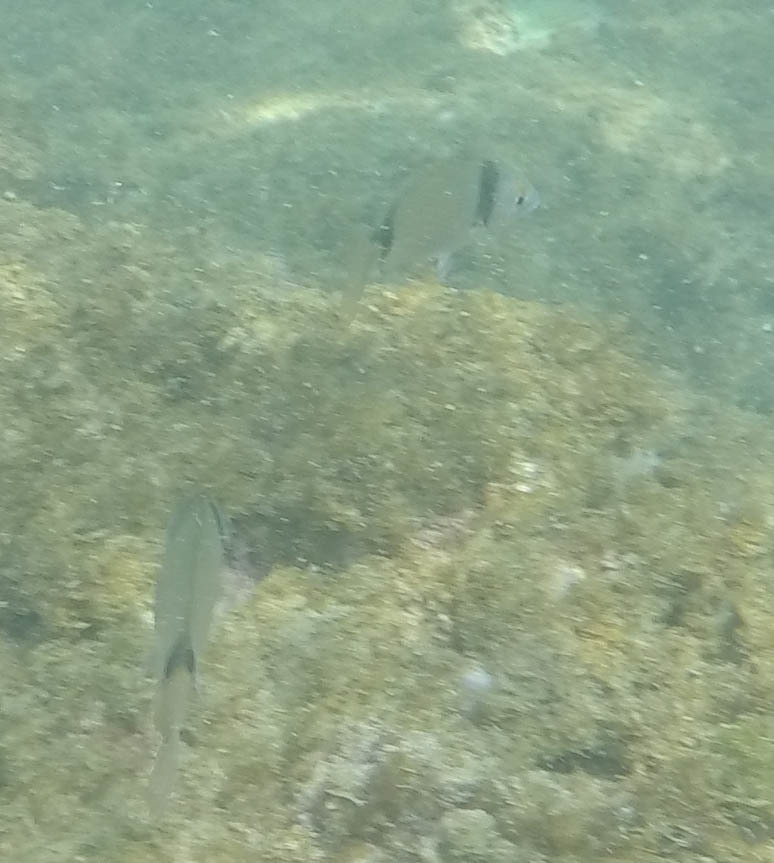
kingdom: Animalia
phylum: Chordata
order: Perciformes
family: Sparidae
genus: Diplodus
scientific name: Diplodus vulgaris
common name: Common two-banded seabream
